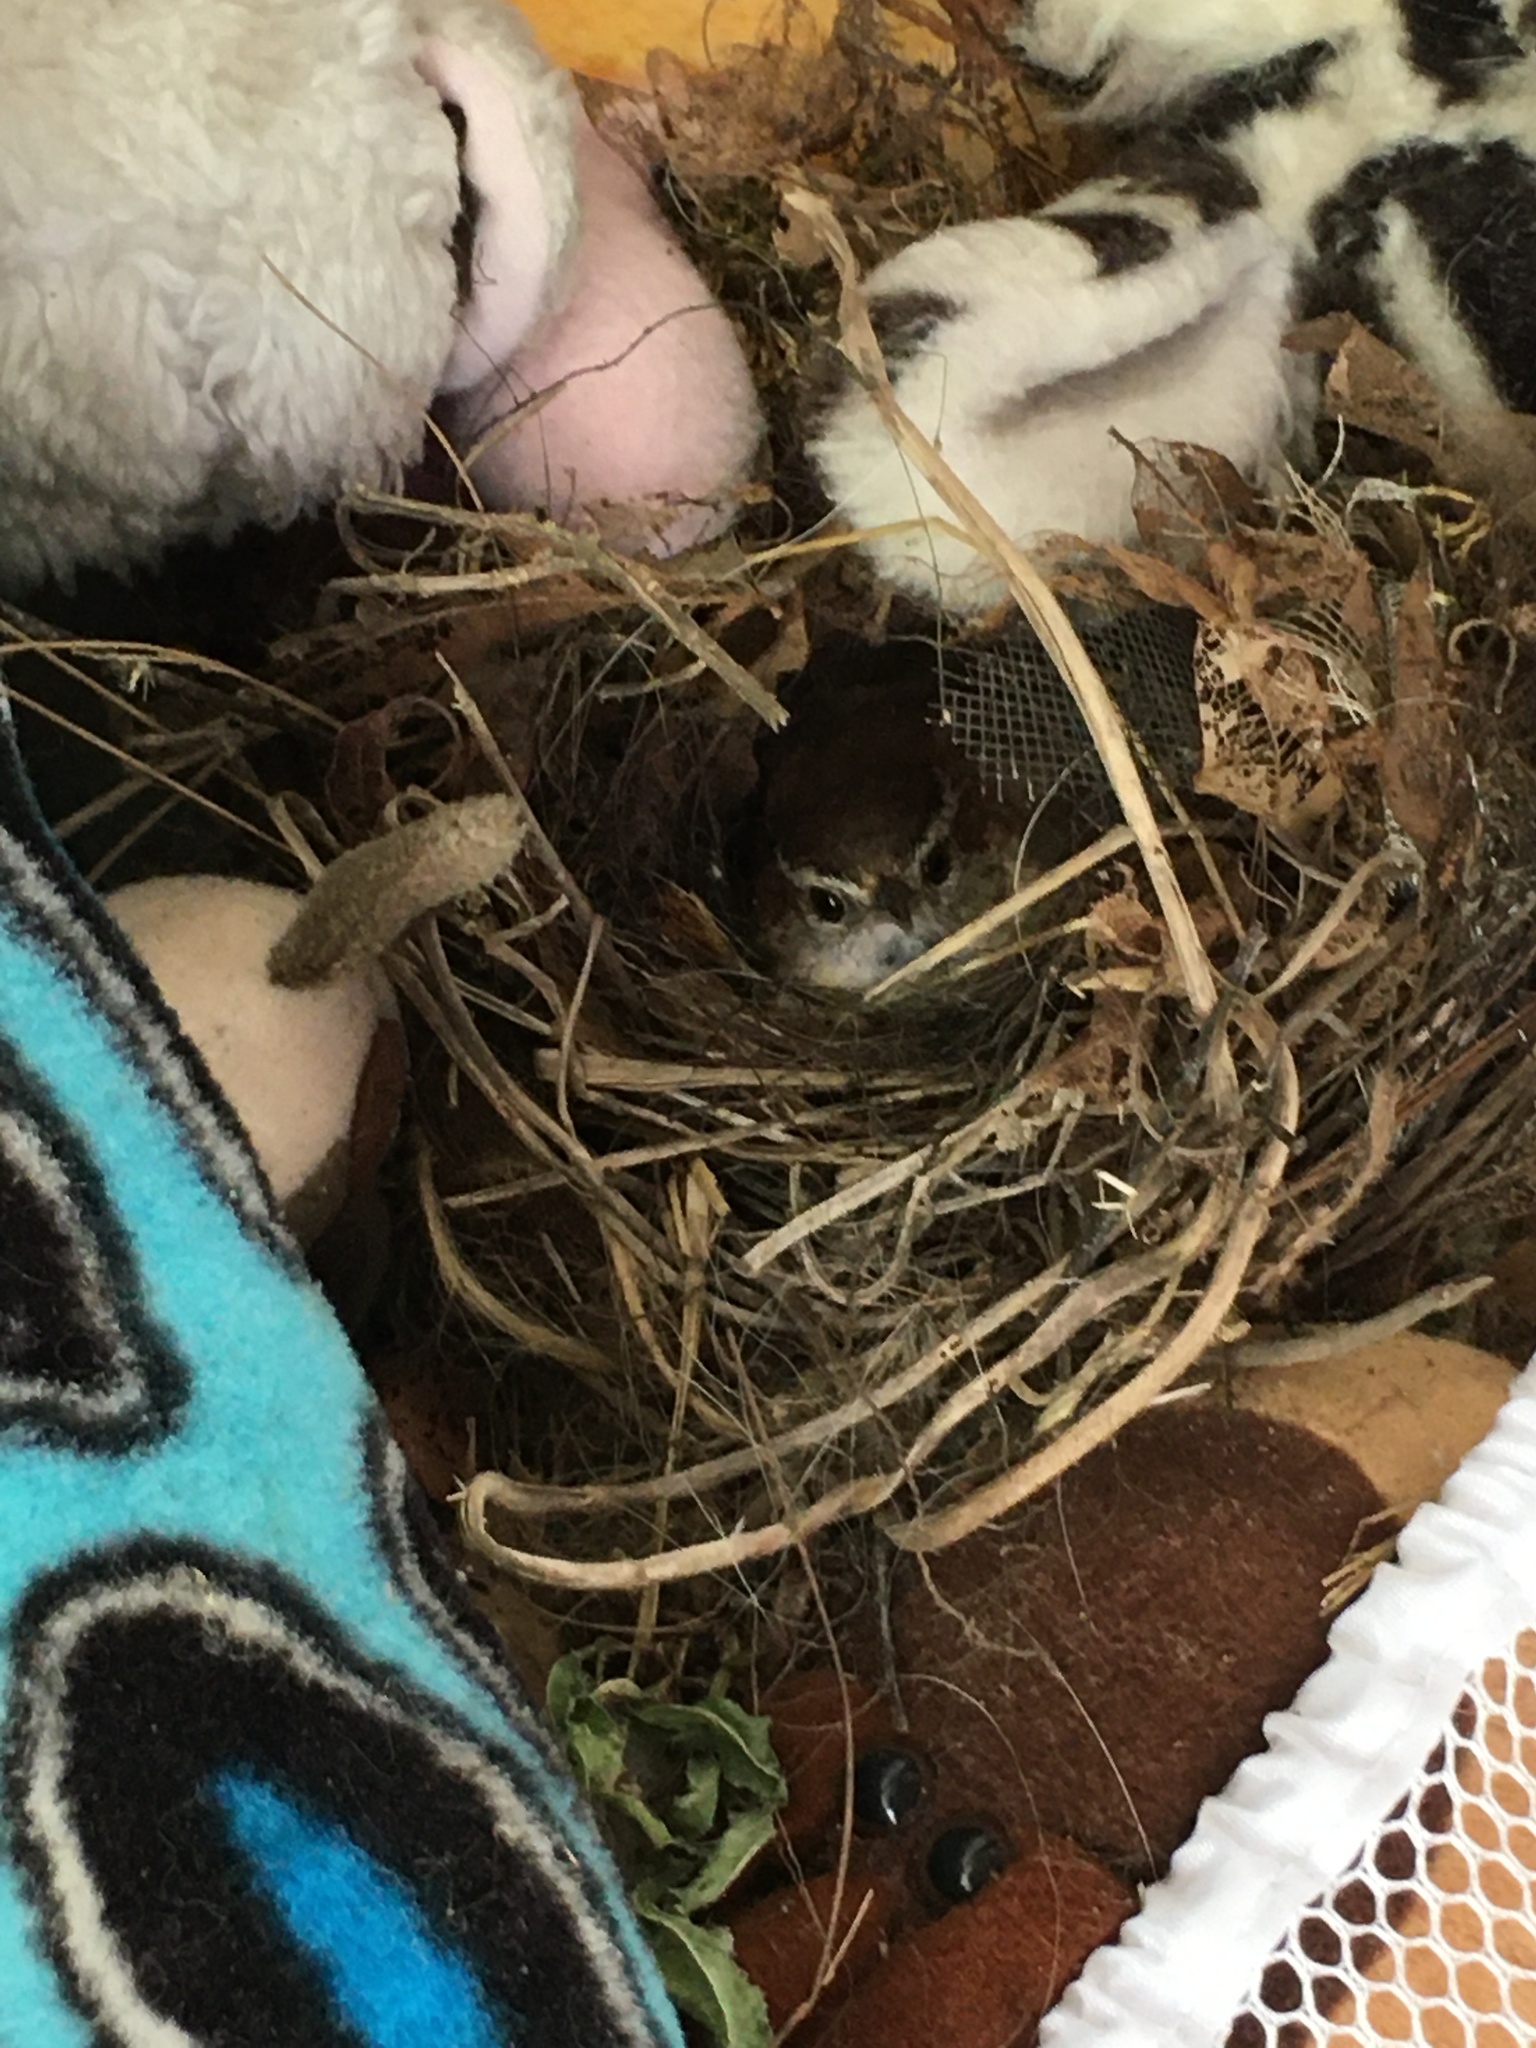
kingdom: Animalia
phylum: Chordata
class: Aves
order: Passeriformes
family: Troglodytidae
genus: Thryothorus
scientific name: Thryothorus ludovicianus
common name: Carolina wren
